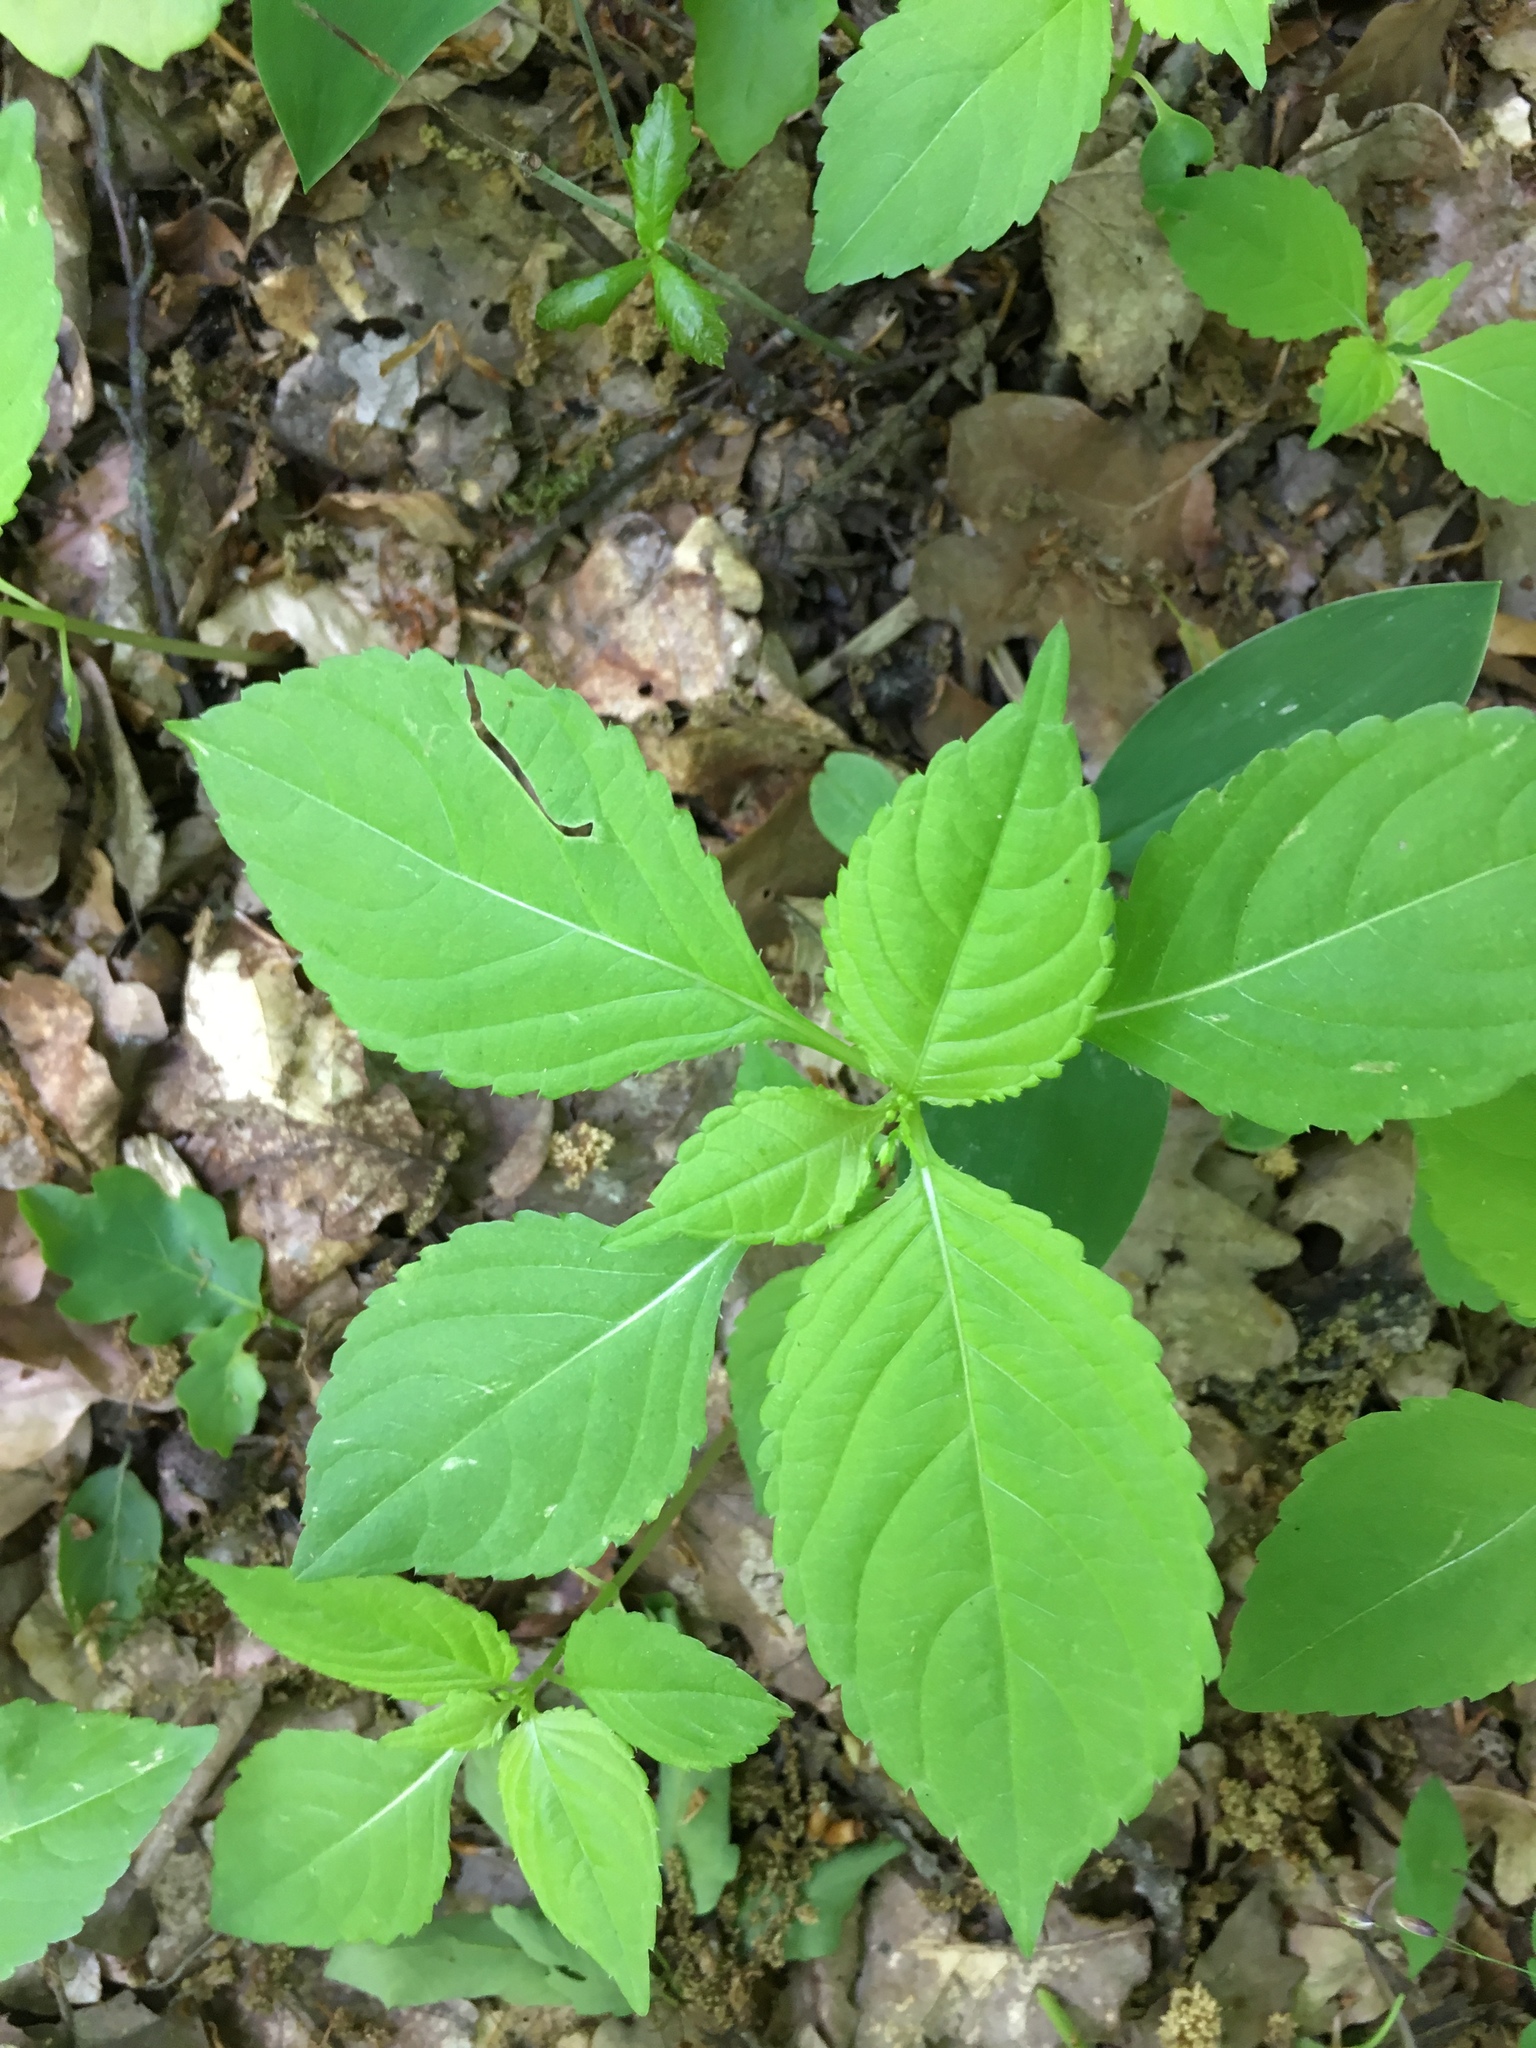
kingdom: Plantae
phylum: Tracheophyta
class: Magnoliopsida
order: Ericales
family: Balsaminaceae
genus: Impatiens
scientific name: Impatiens parviflora
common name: Small balsam
